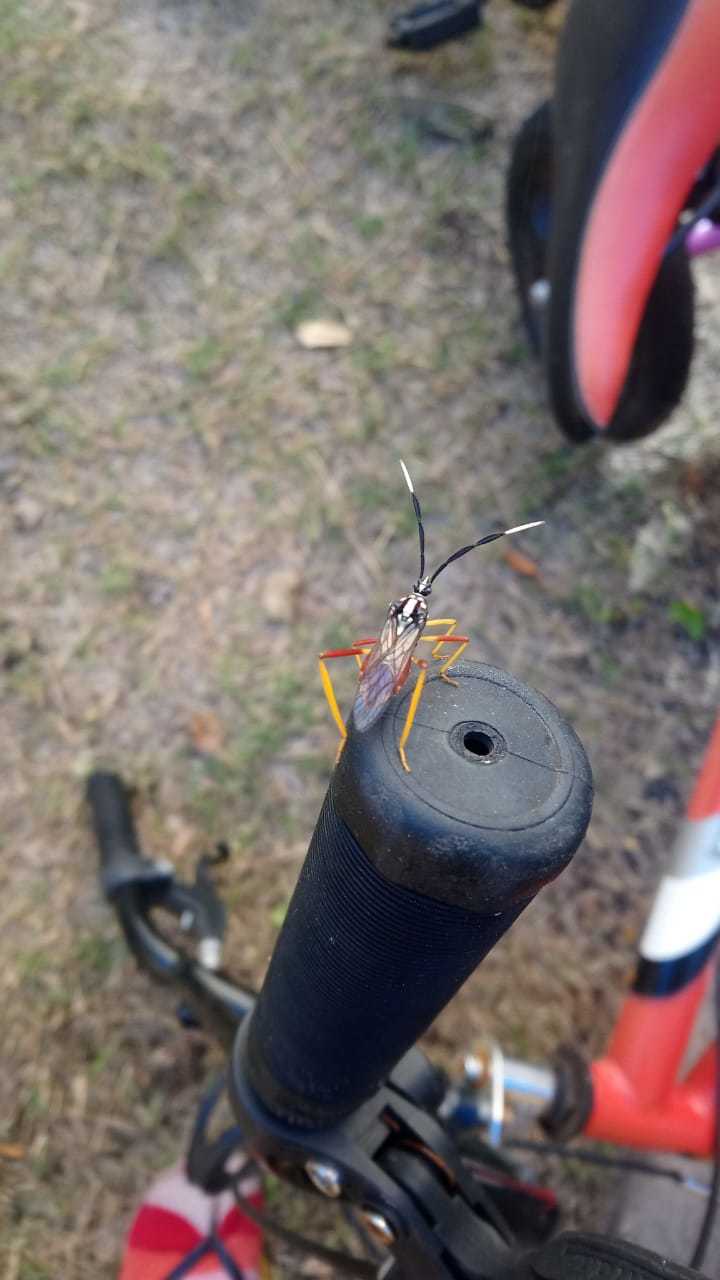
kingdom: Animalia
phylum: Arthropoda
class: Insecta
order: Hemiptera
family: Coreidae
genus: Holhymenia
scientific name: Holhymenia histrio
